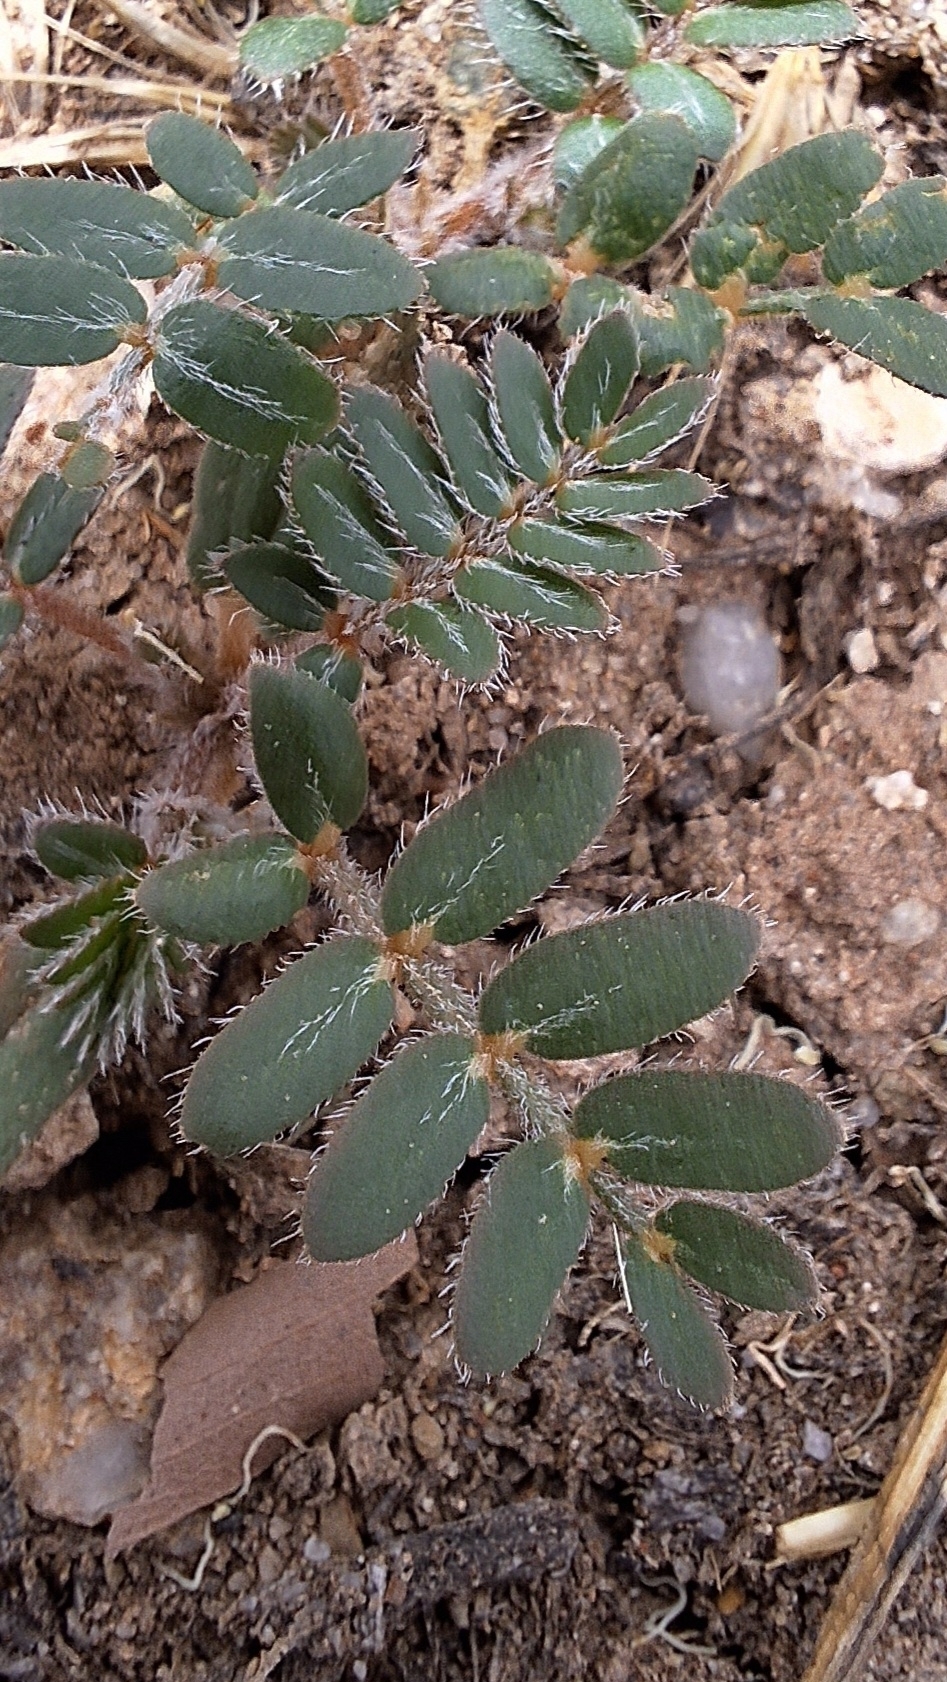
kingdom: Plantae
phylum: Tracheophyta
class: Magnoliopsida
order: Zygophyllales
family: Zygophyllaceae
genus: Tribulus
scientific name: Tribulus terrestris
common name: Puncturevine
